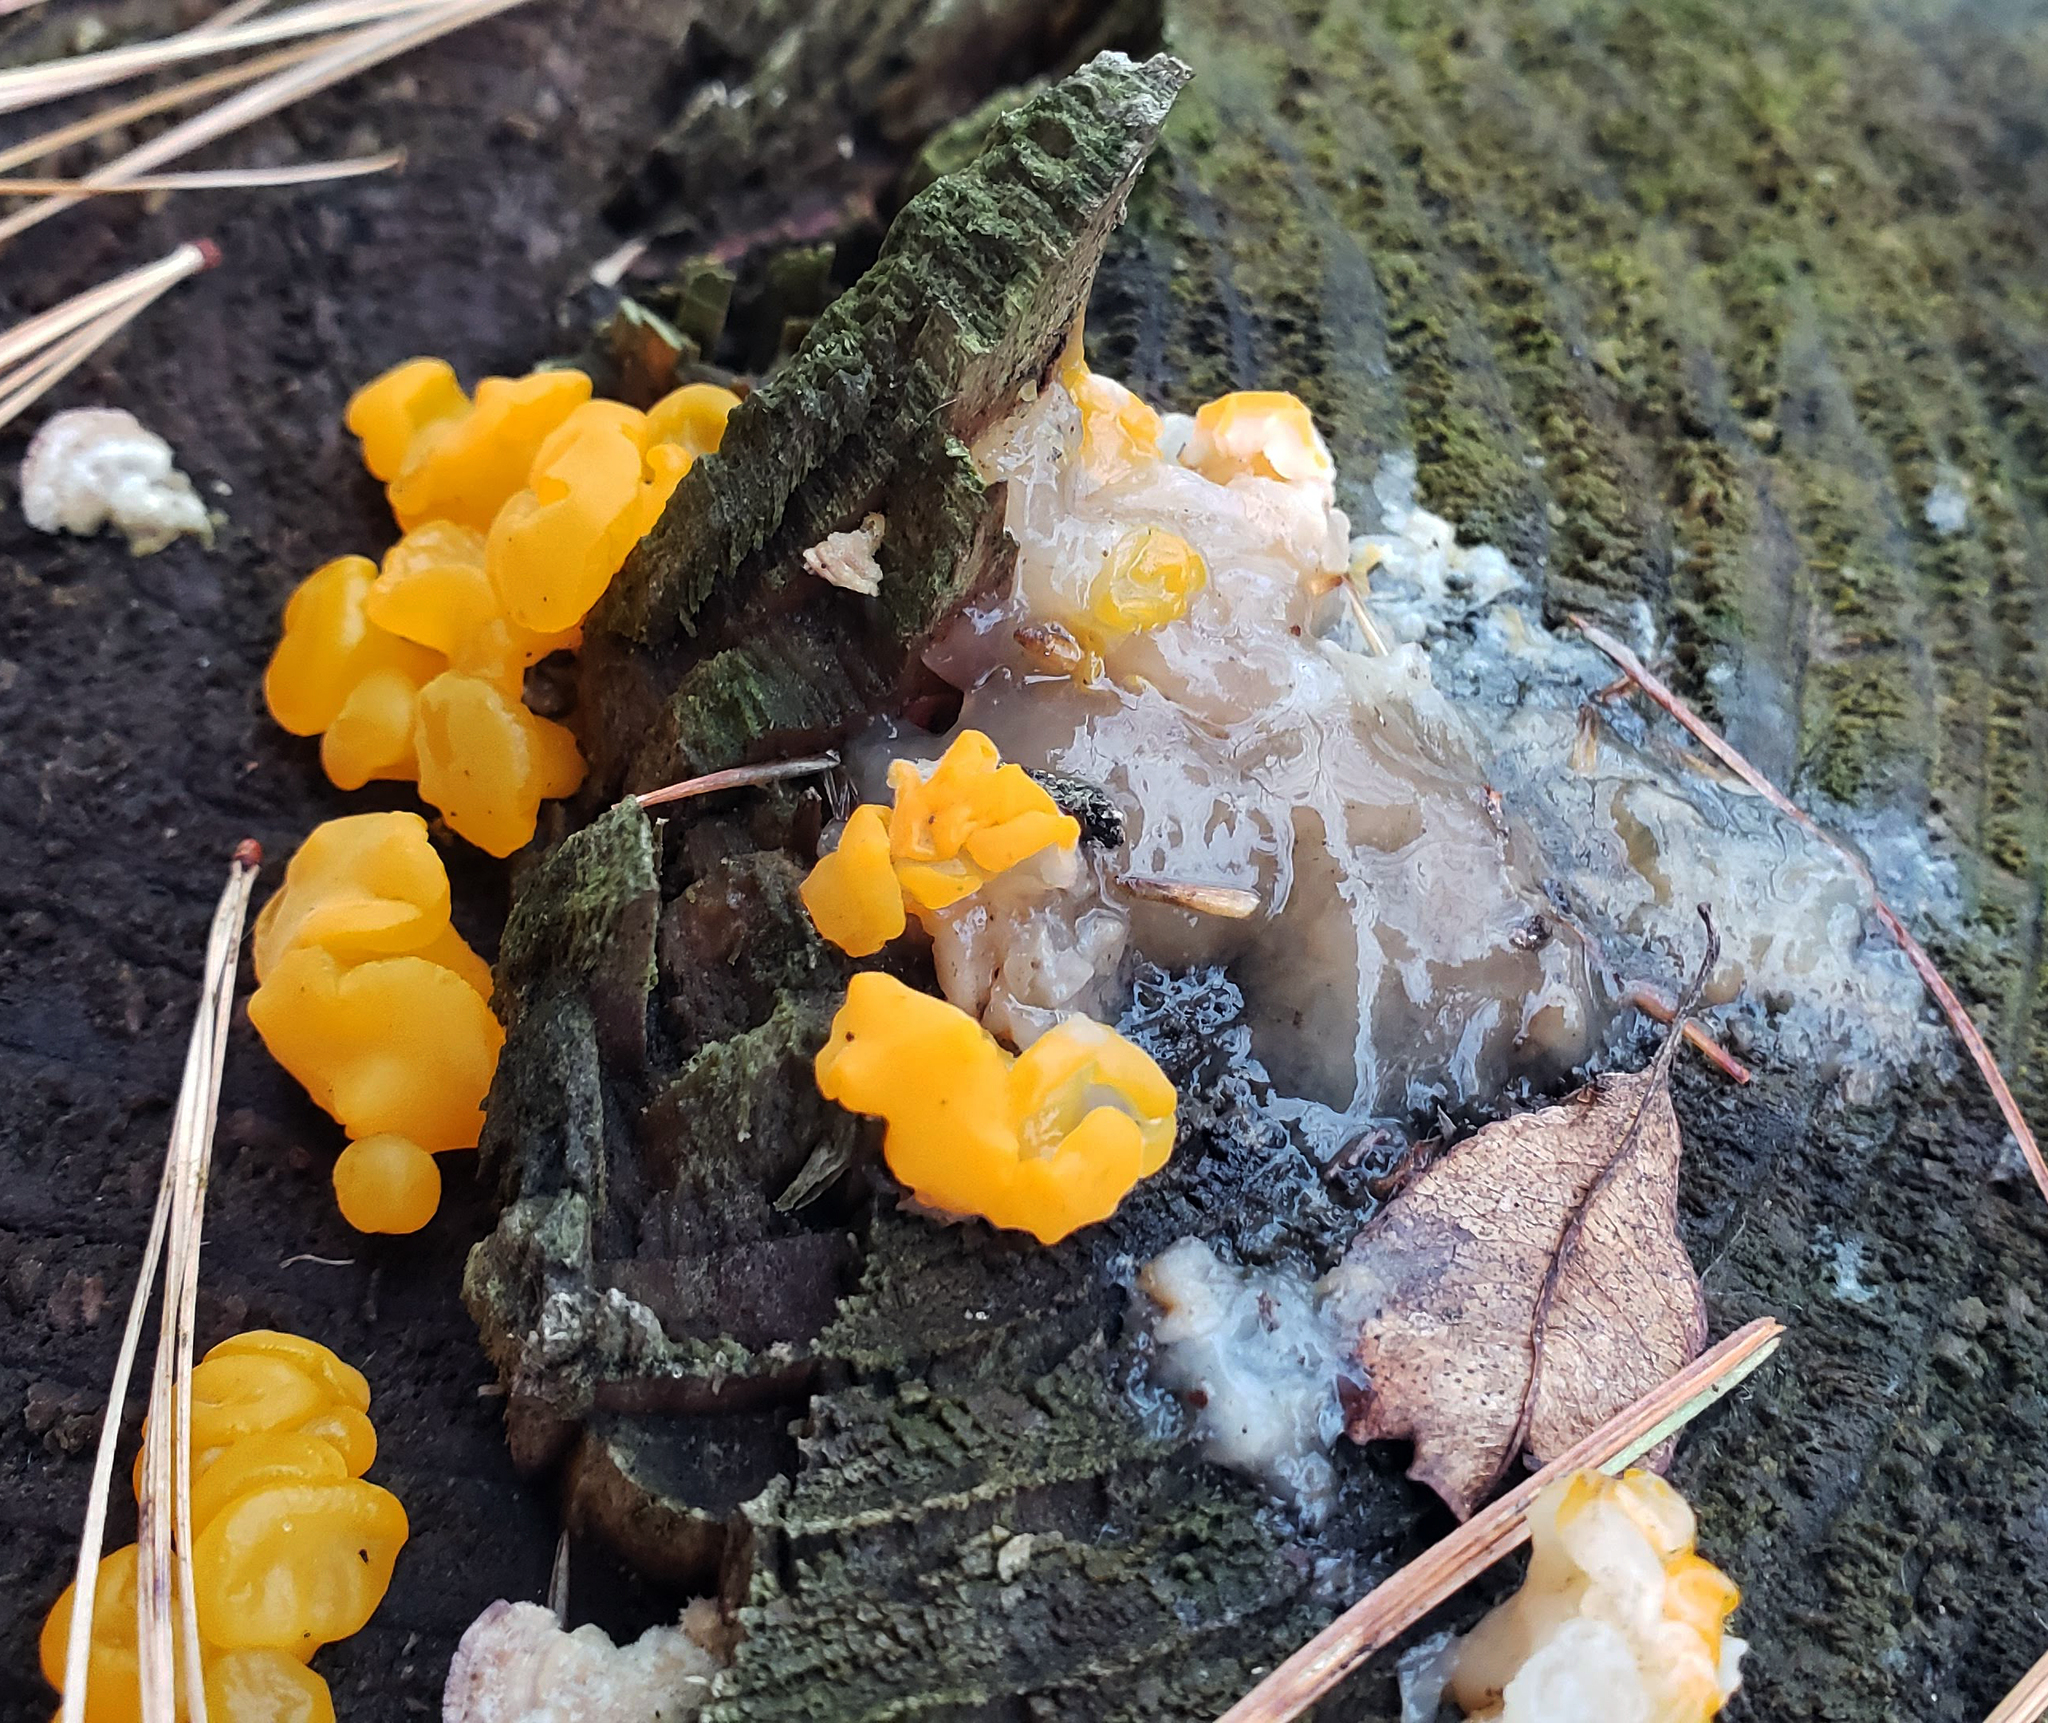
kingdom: Fungi
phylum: Basidiomycota
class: Dacrymycetes
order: Dacrymycetales
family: Dacrymycetaceae
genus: Dacrymyces
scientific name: Dacrymyces chrysospermus
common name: Orange jelly spot
